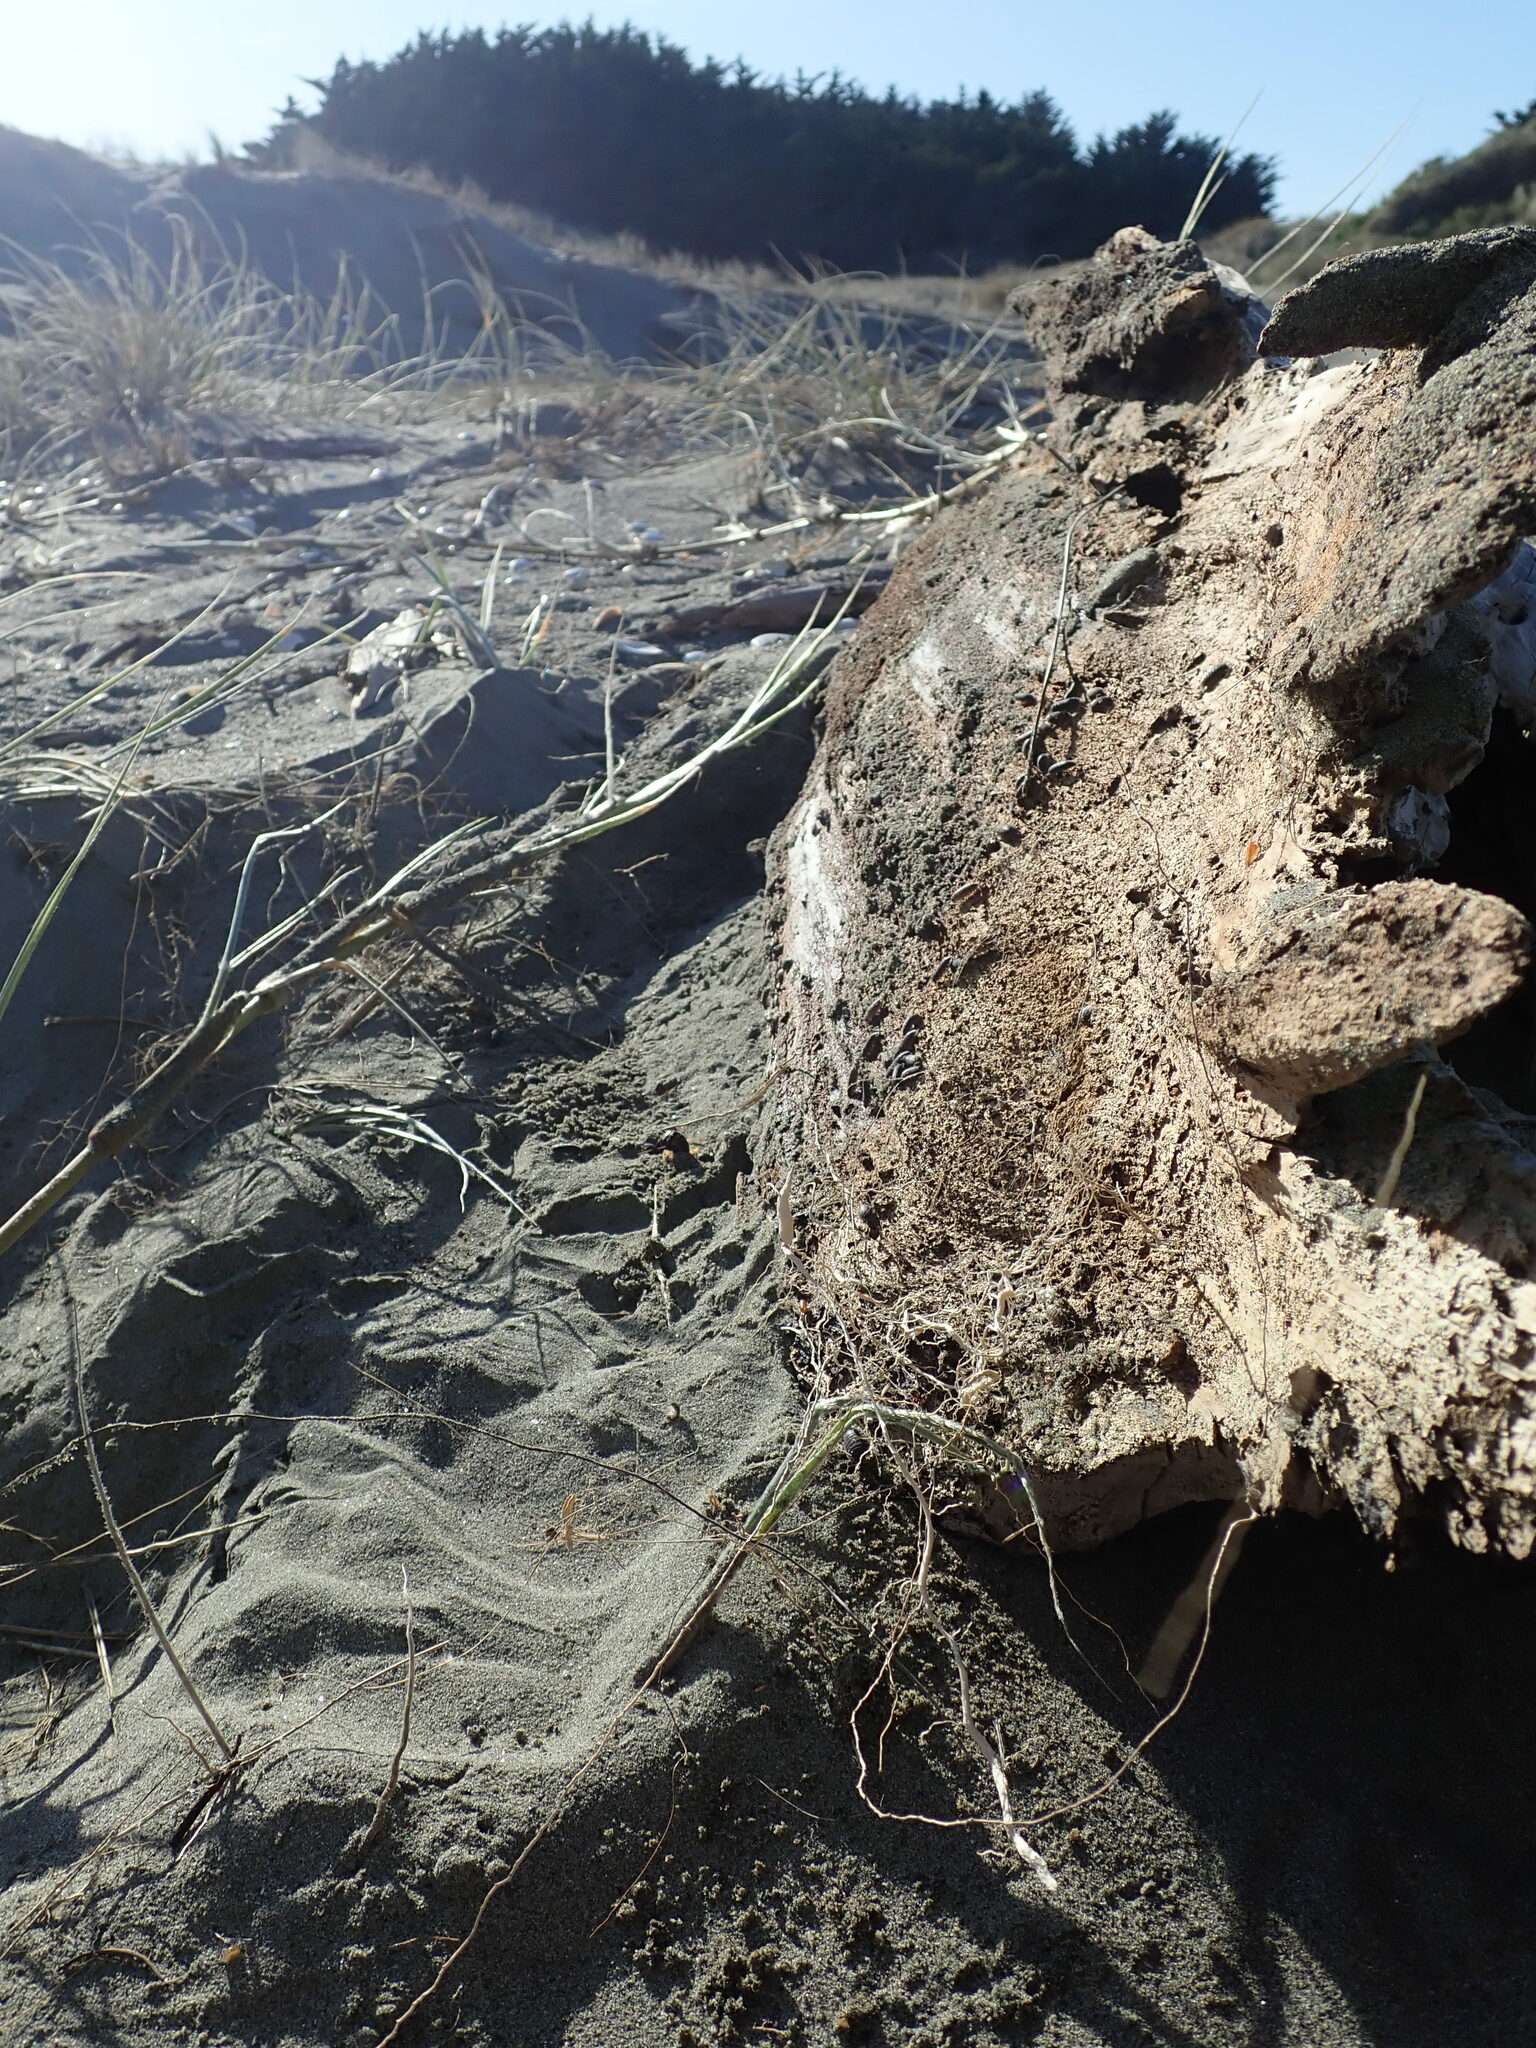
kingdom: Animalia
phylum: Arthropoda
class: Insecta
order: Dermaptera
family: Anisolabididae
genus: Anisolabis
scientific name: Anisolabis littorea
